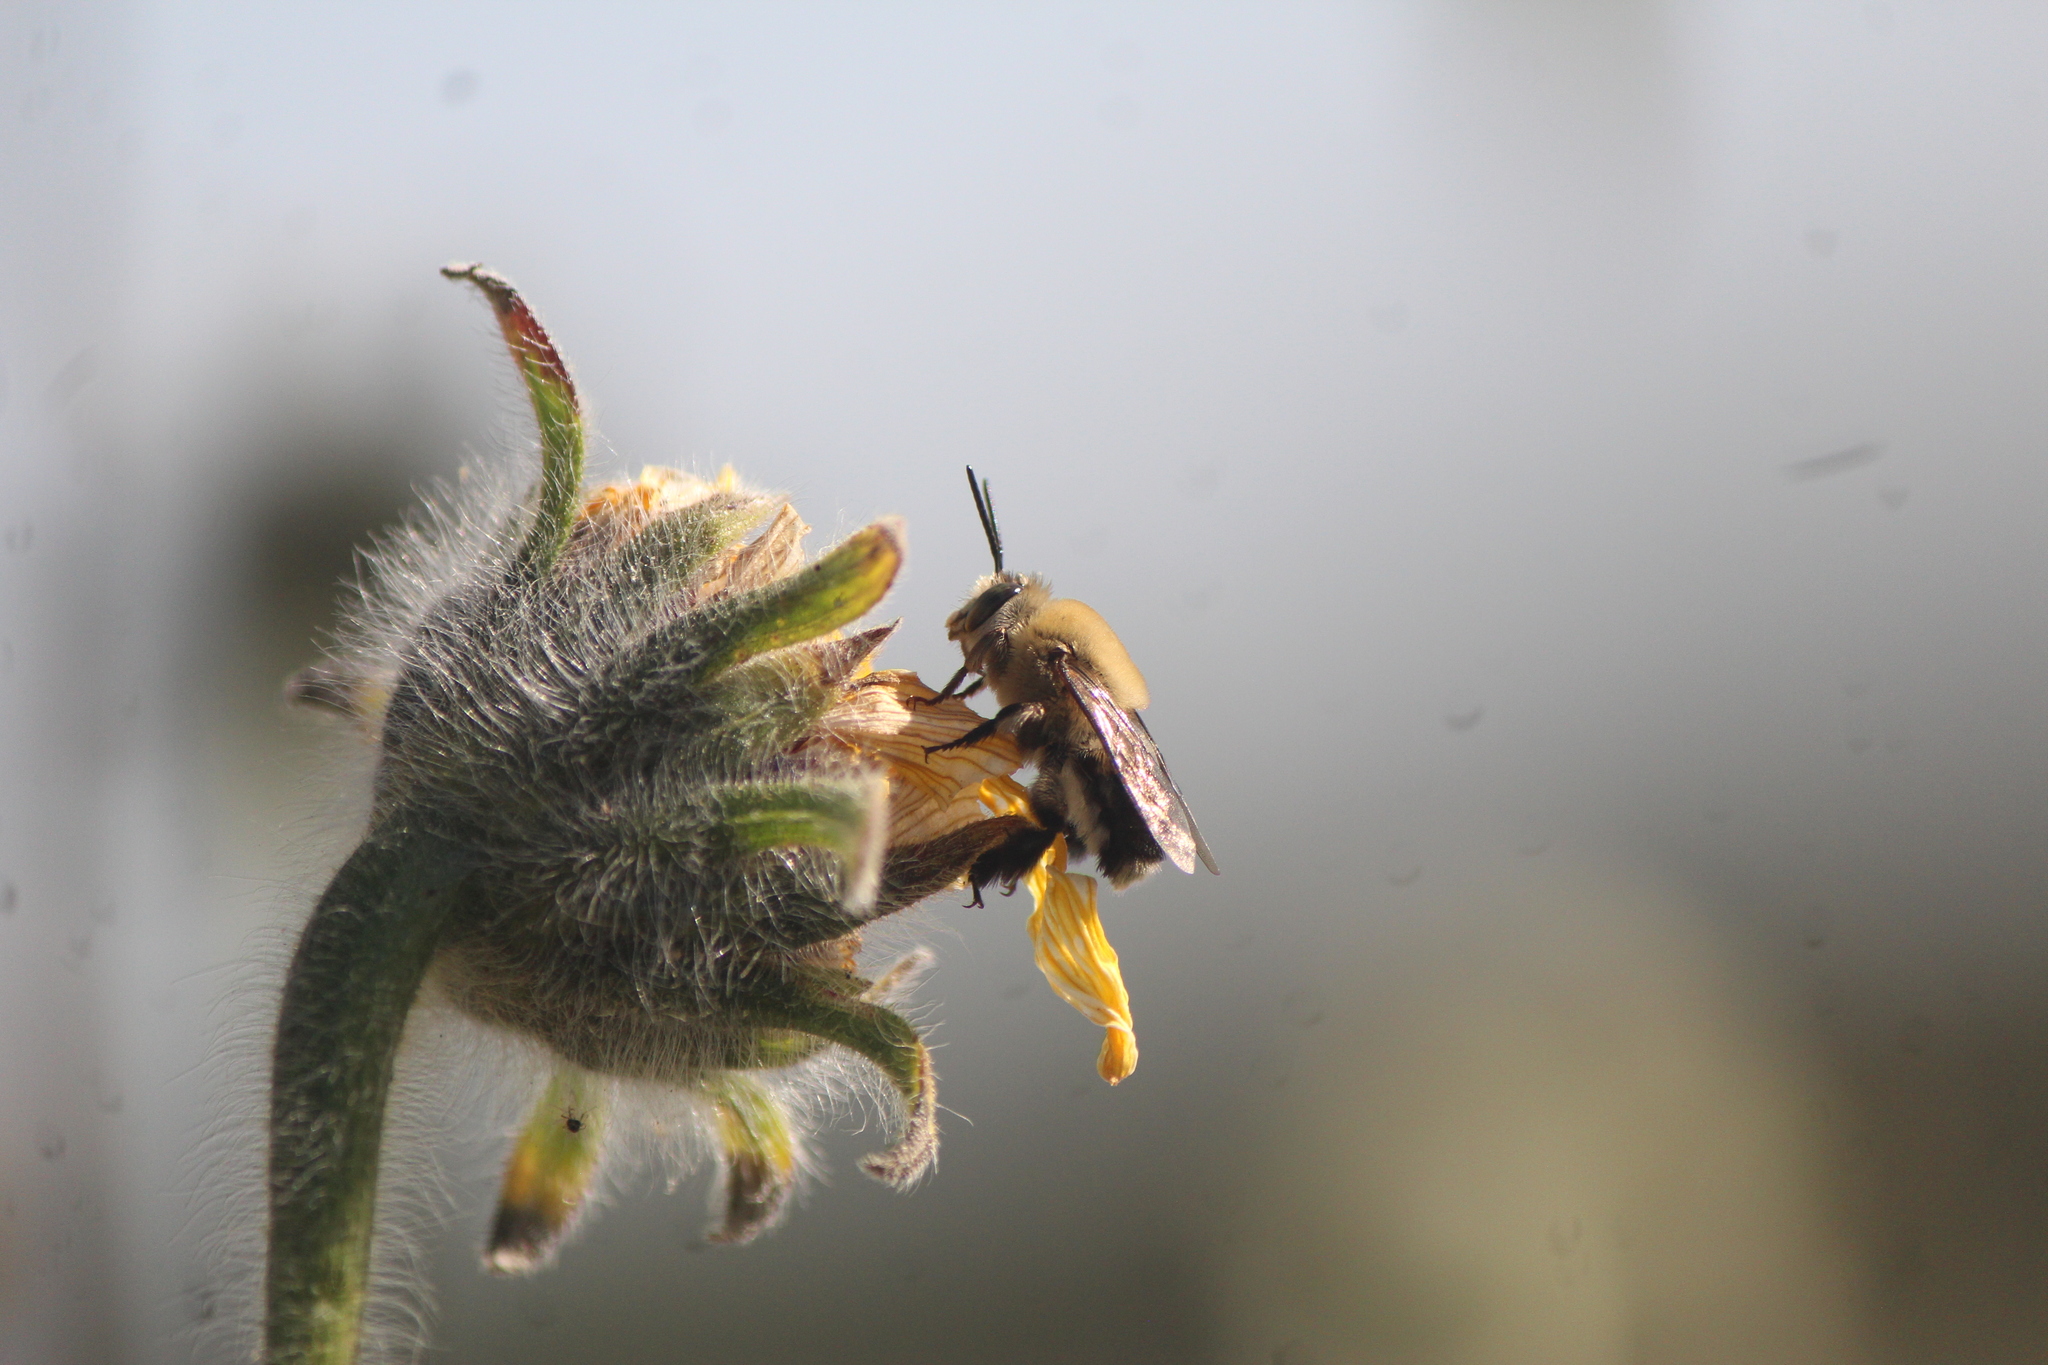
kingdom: Animalia
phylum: Arthropoda
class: Insecta
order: Hymenoptera
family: Apidae
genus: Centris
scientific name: Centris nitida
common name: Oil-collecting bee
